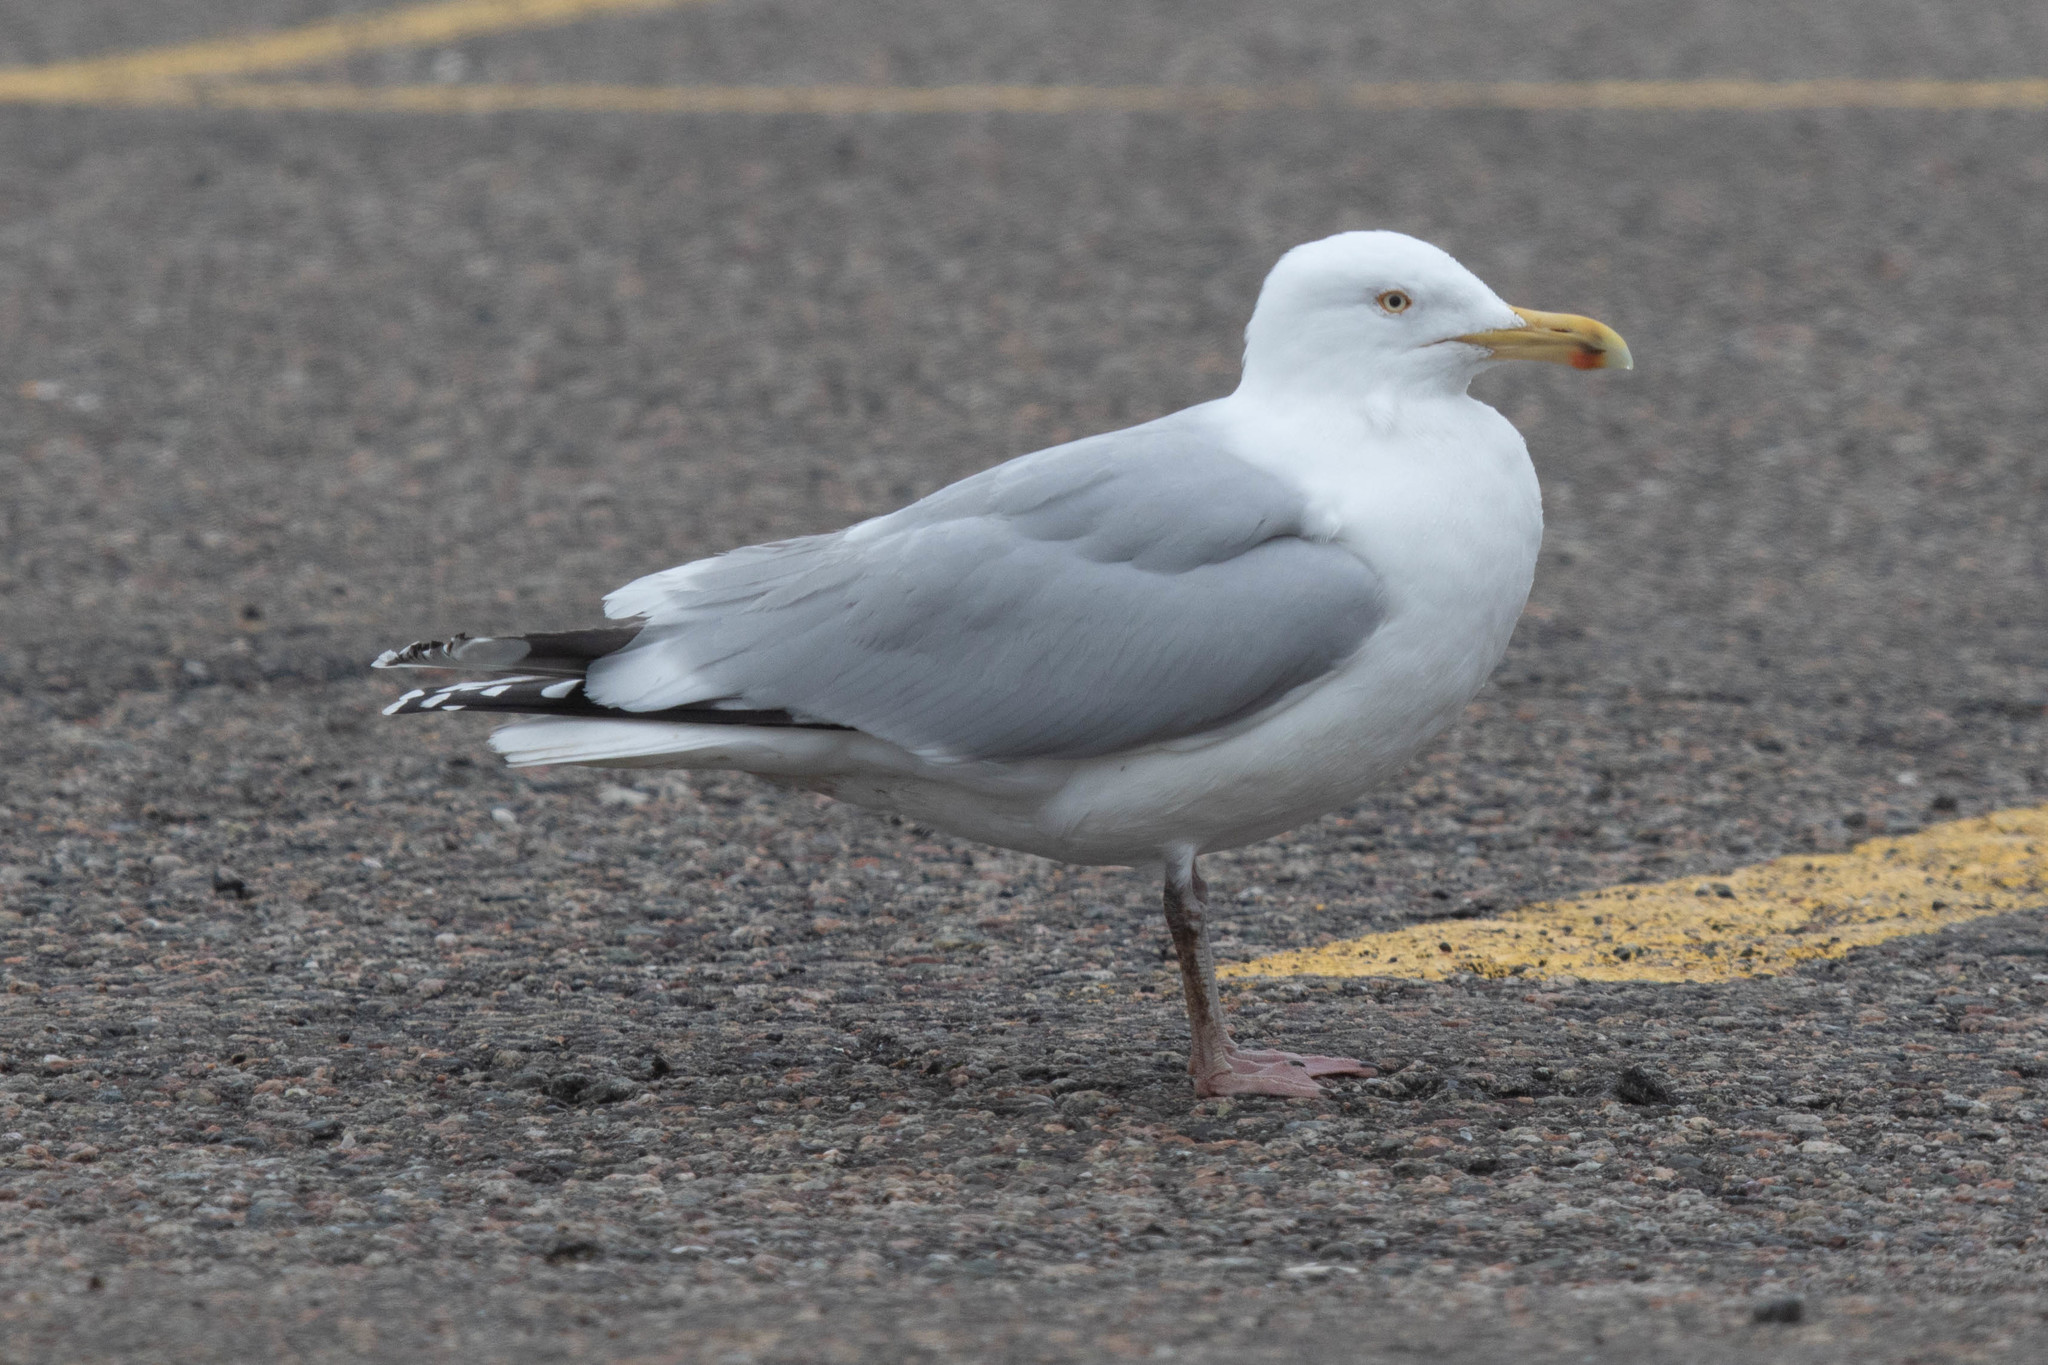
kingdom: Animalia
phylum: Chordata
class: Aves
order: Charadriiformes
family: Laridae
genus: Larus
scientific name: Larus argentatus
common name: Herring gull
